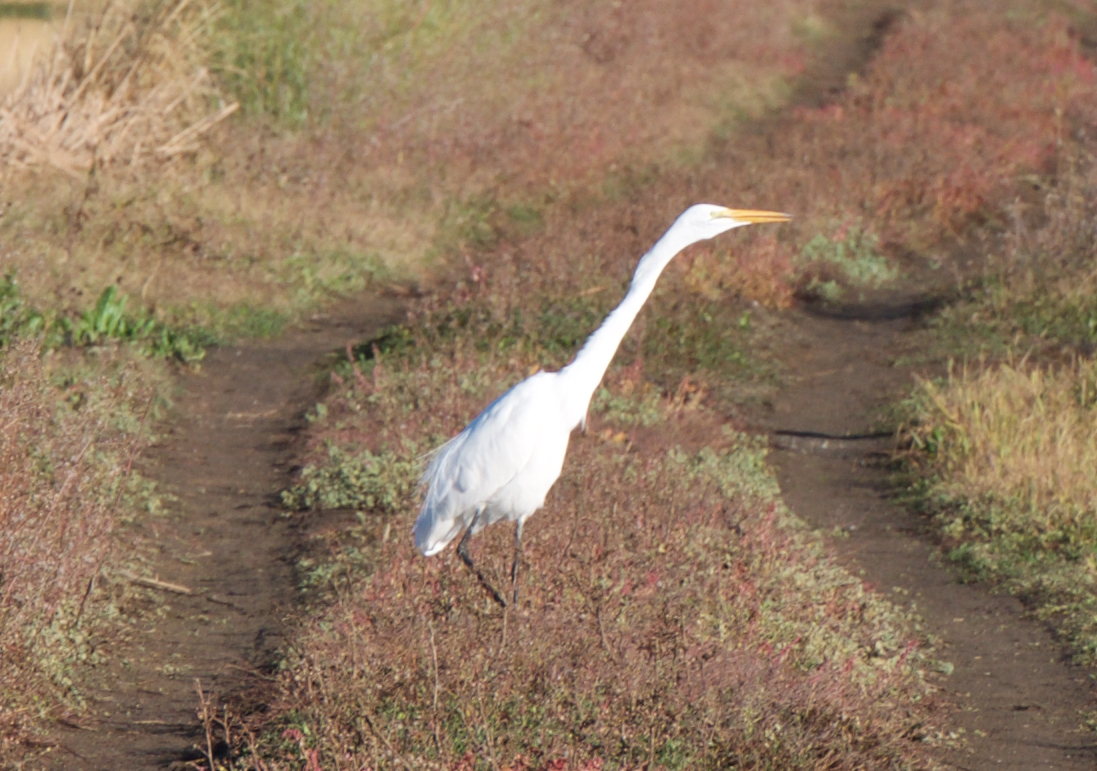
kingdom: Animalia
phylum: Chordata
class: Aves
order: Pelecaniformes
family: Ardeidae
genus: Ardea
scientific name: Ardea alba
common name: Great egret
